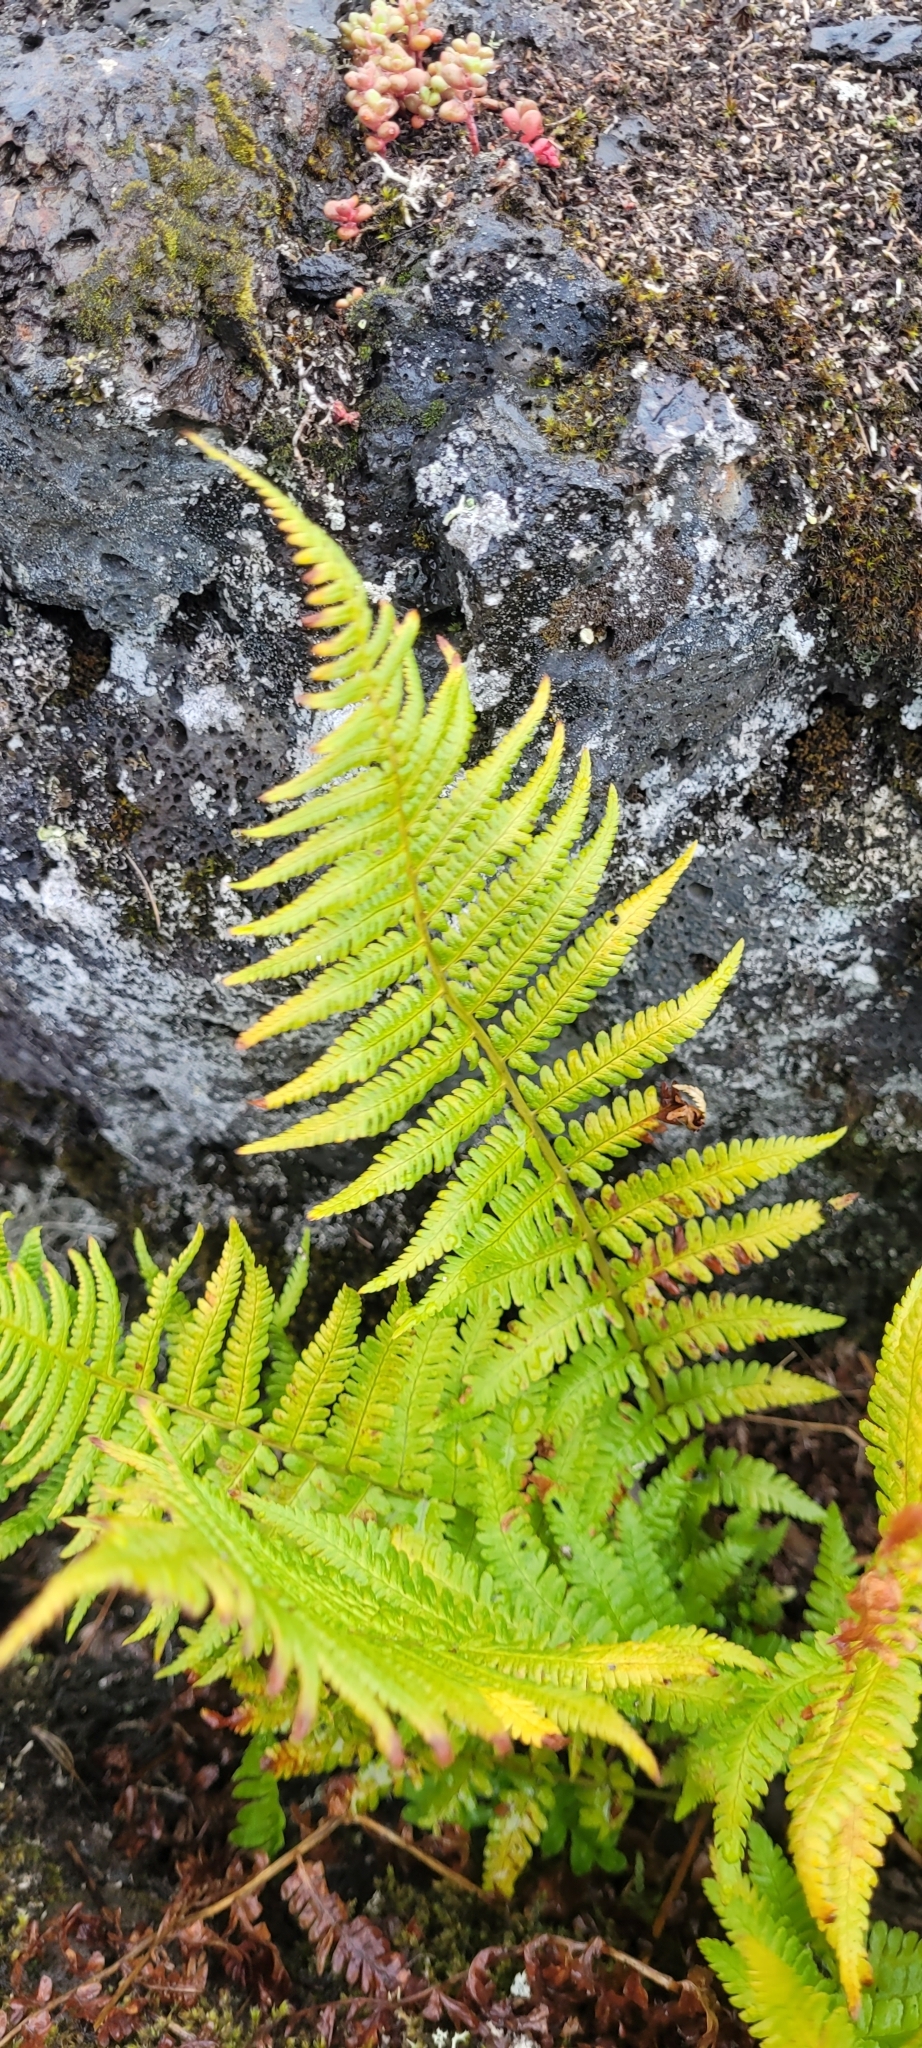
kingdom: Plantae
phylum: Tracheophyta
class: Polypodiopsida
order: Polypodiales
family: Dryopteridaceae
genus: Dryopteris
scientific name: Dryopteris filix-mas
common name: Male fern
